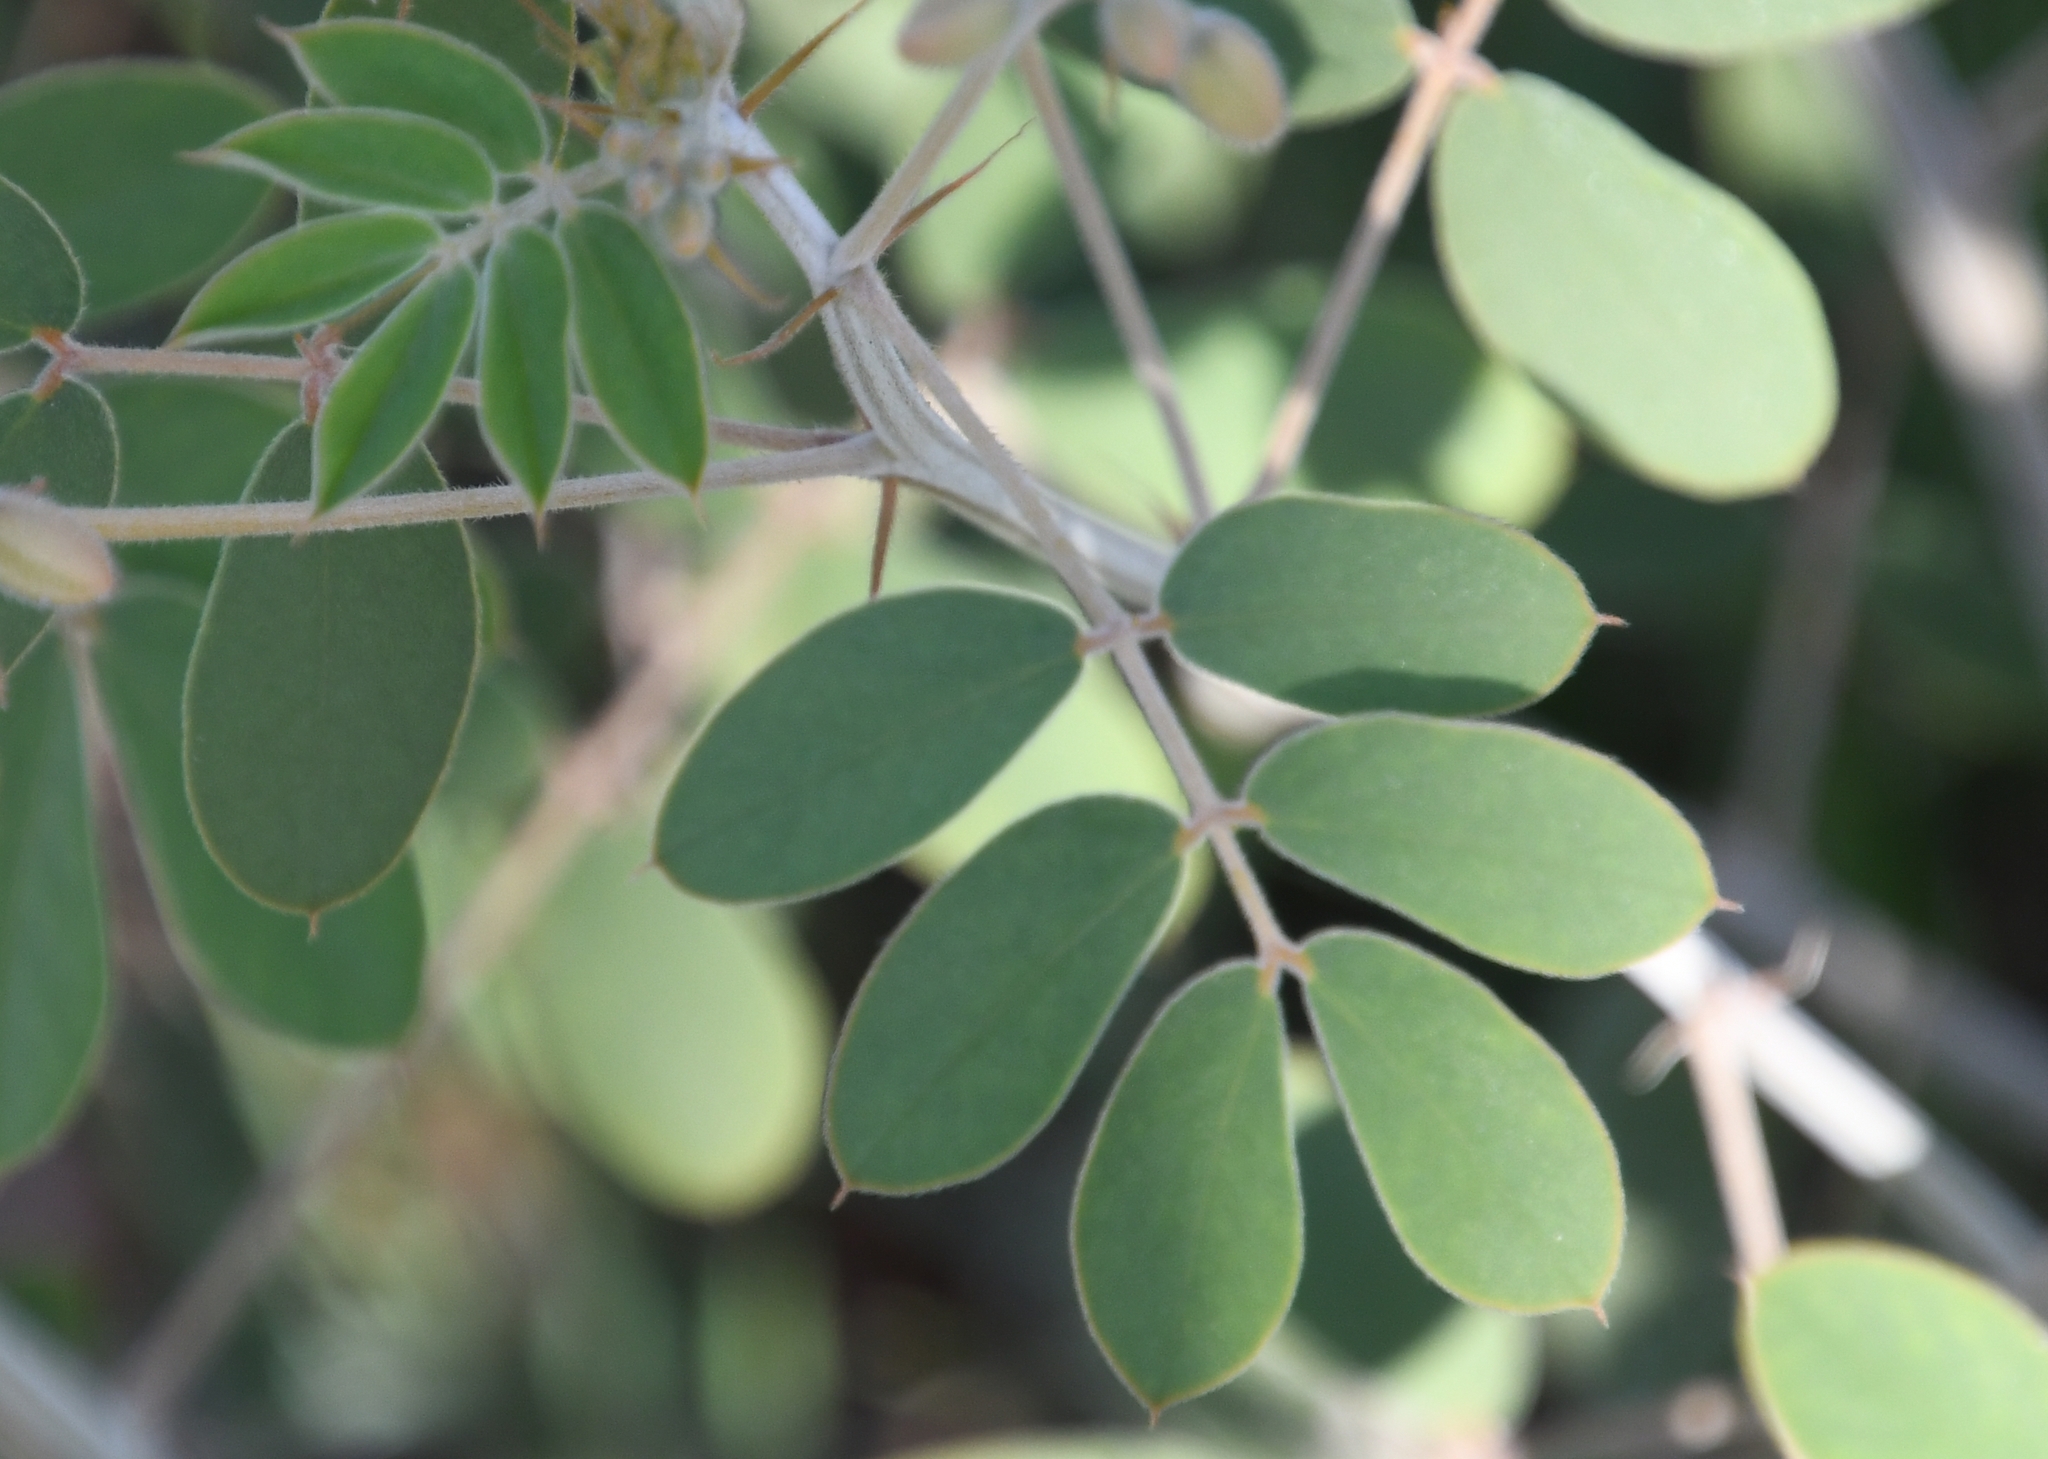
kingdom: Plantae
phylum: Tracheophyta
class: Magnoliopsida
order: Fabales
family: Fabaceae
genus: Senna
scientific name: Senna covesii
